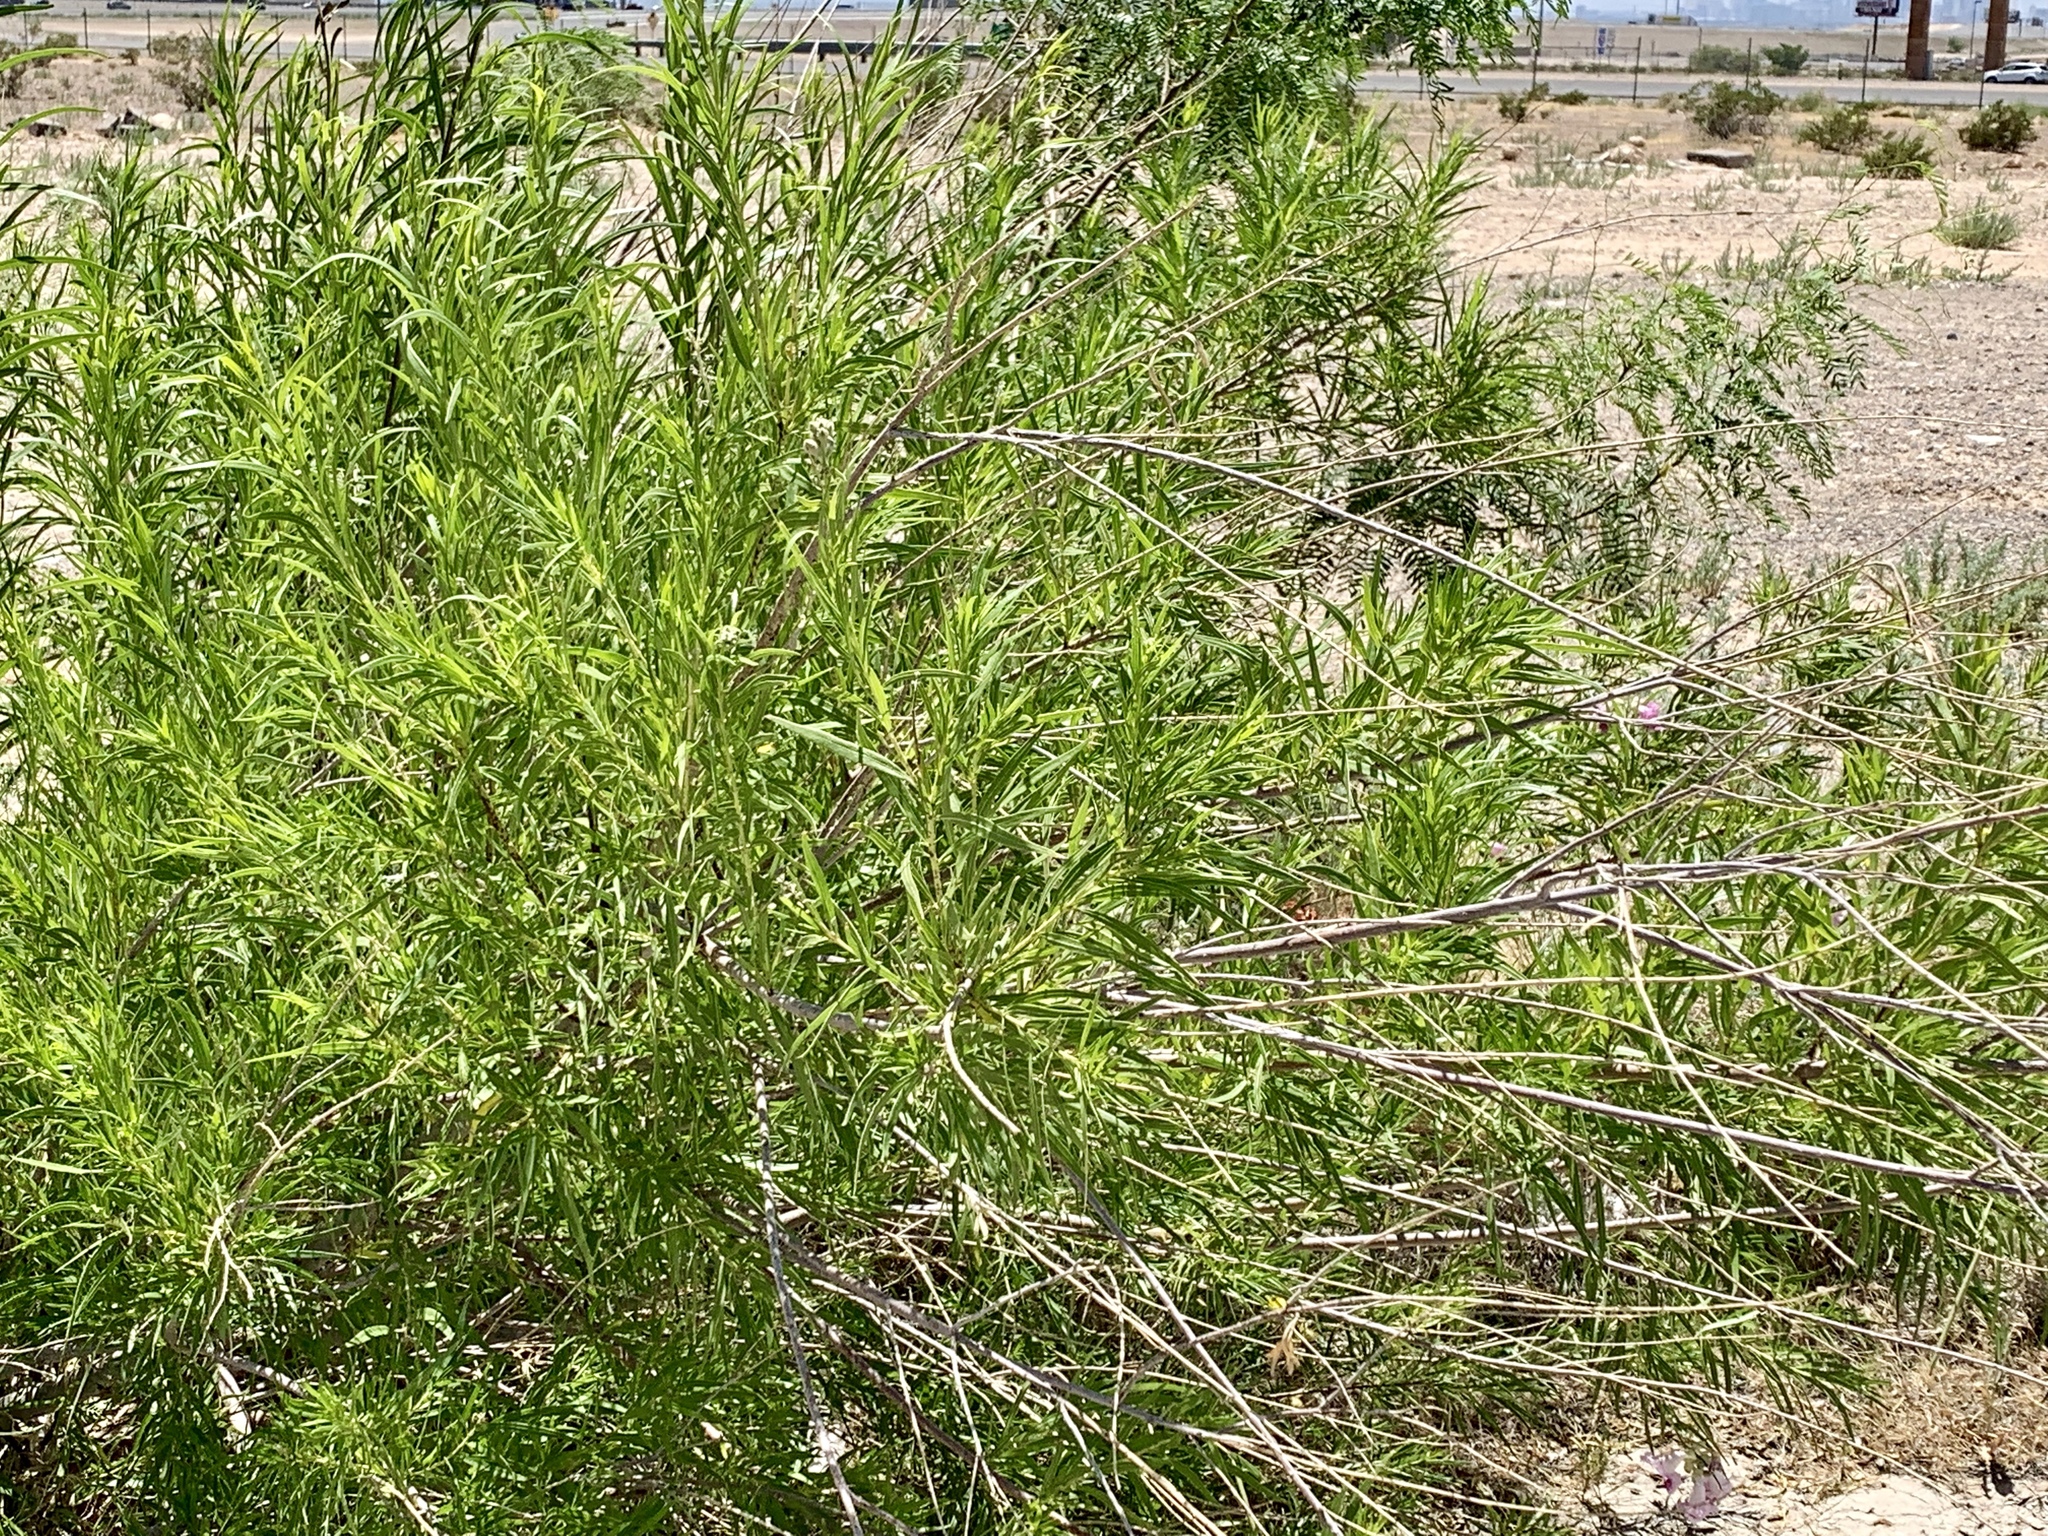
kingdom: Plantae
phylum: Tracheophyta
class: Magnoliopsida
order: Lamiales
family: Bignoniaceae
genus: Chilopsis
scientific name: Chilopsis linearis
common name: Desert-willow
